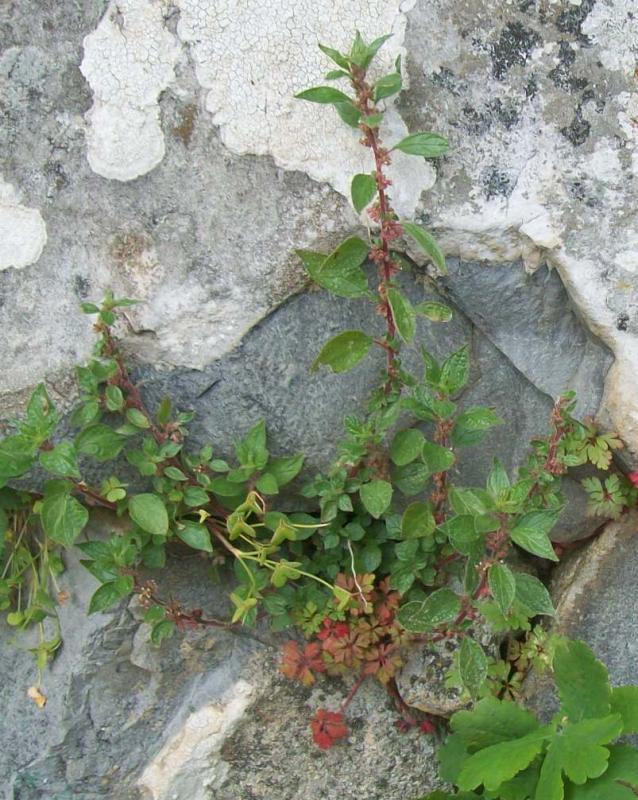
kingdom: Plantae
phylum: Tracheophyta
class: Magnoliopsida
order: Rosales
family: Urticaceae
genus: Parietaria
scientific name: Parietaria judaica
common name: Pellitory-of-the-wall
